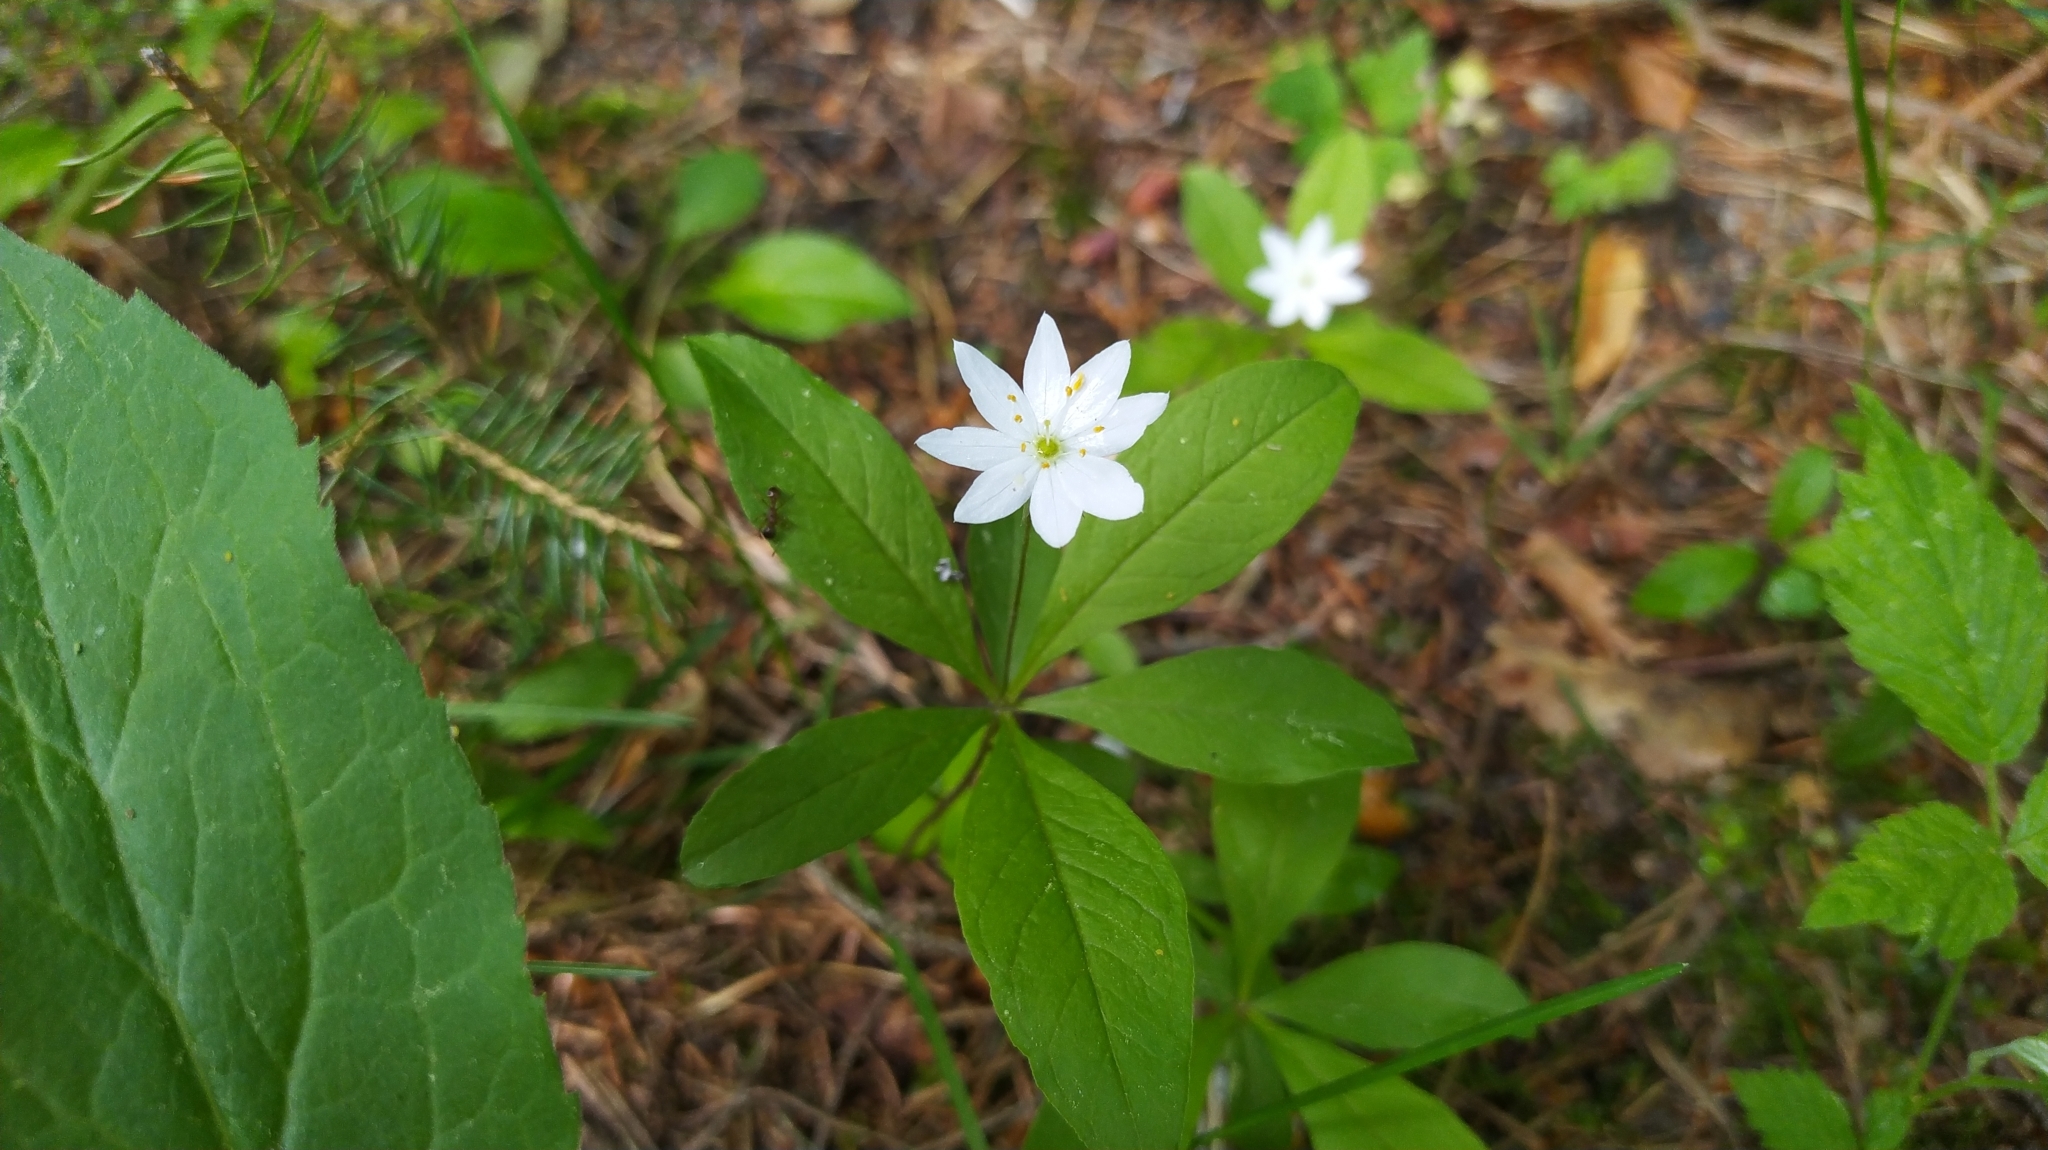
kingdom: Plantae
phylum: Tracheophyta
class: Magnoliopsida
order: Ericales
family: Primulaceae
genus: Lysimachia
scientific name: Lysimachia europaea
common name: Arctic starflower
